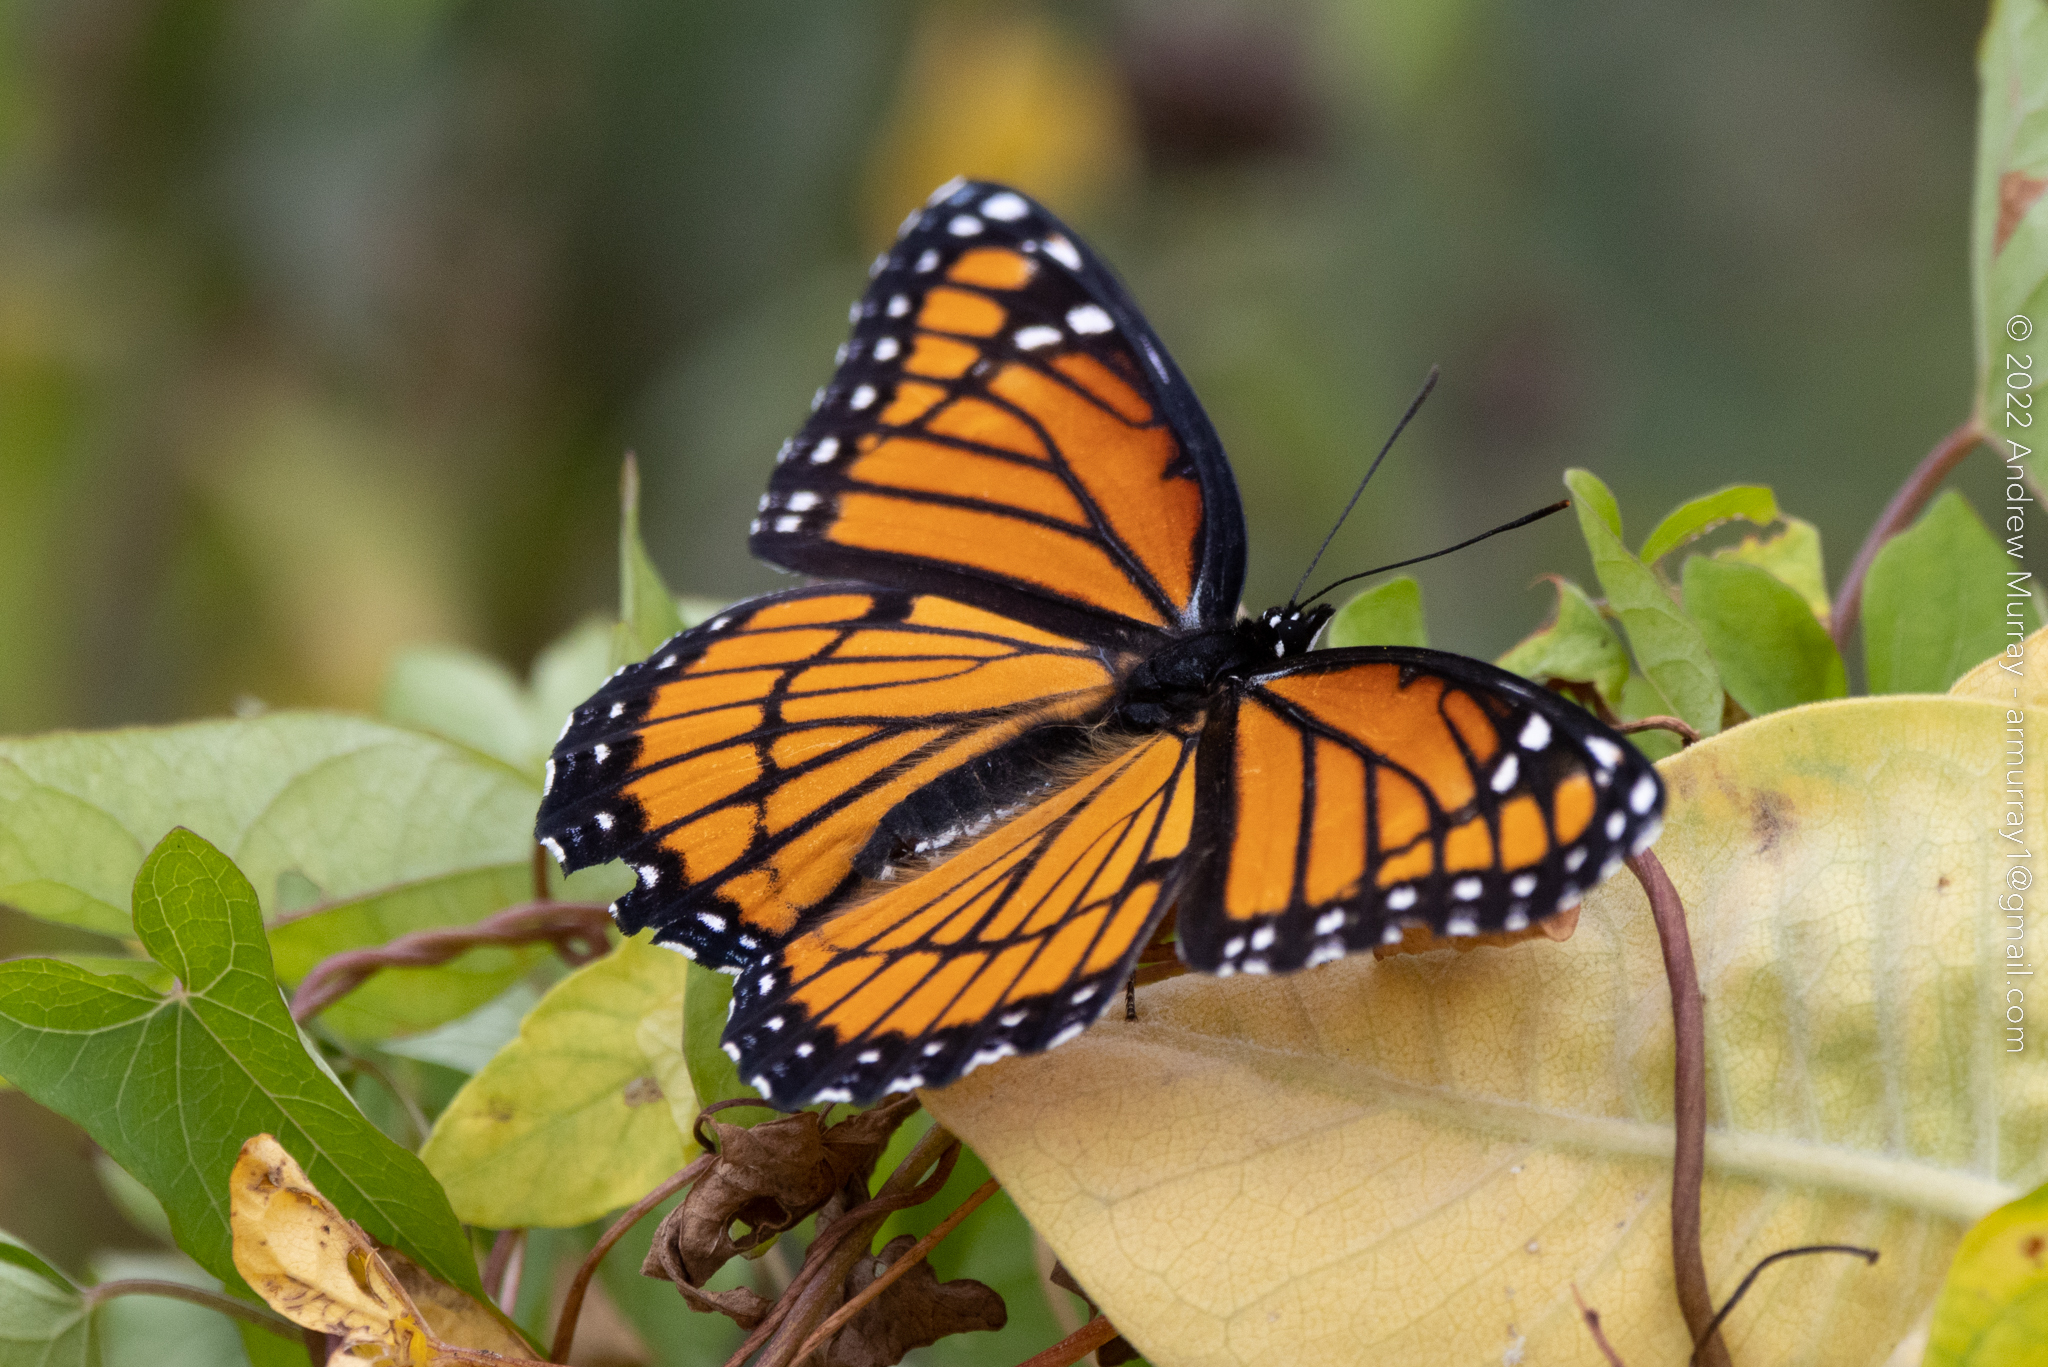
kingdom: Animalia
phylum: Arthropoda
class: Insecta
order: Lepidoptera
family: Nymphalidae
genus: Limenitis
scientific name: Limenitis archippus
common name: Viceroy
